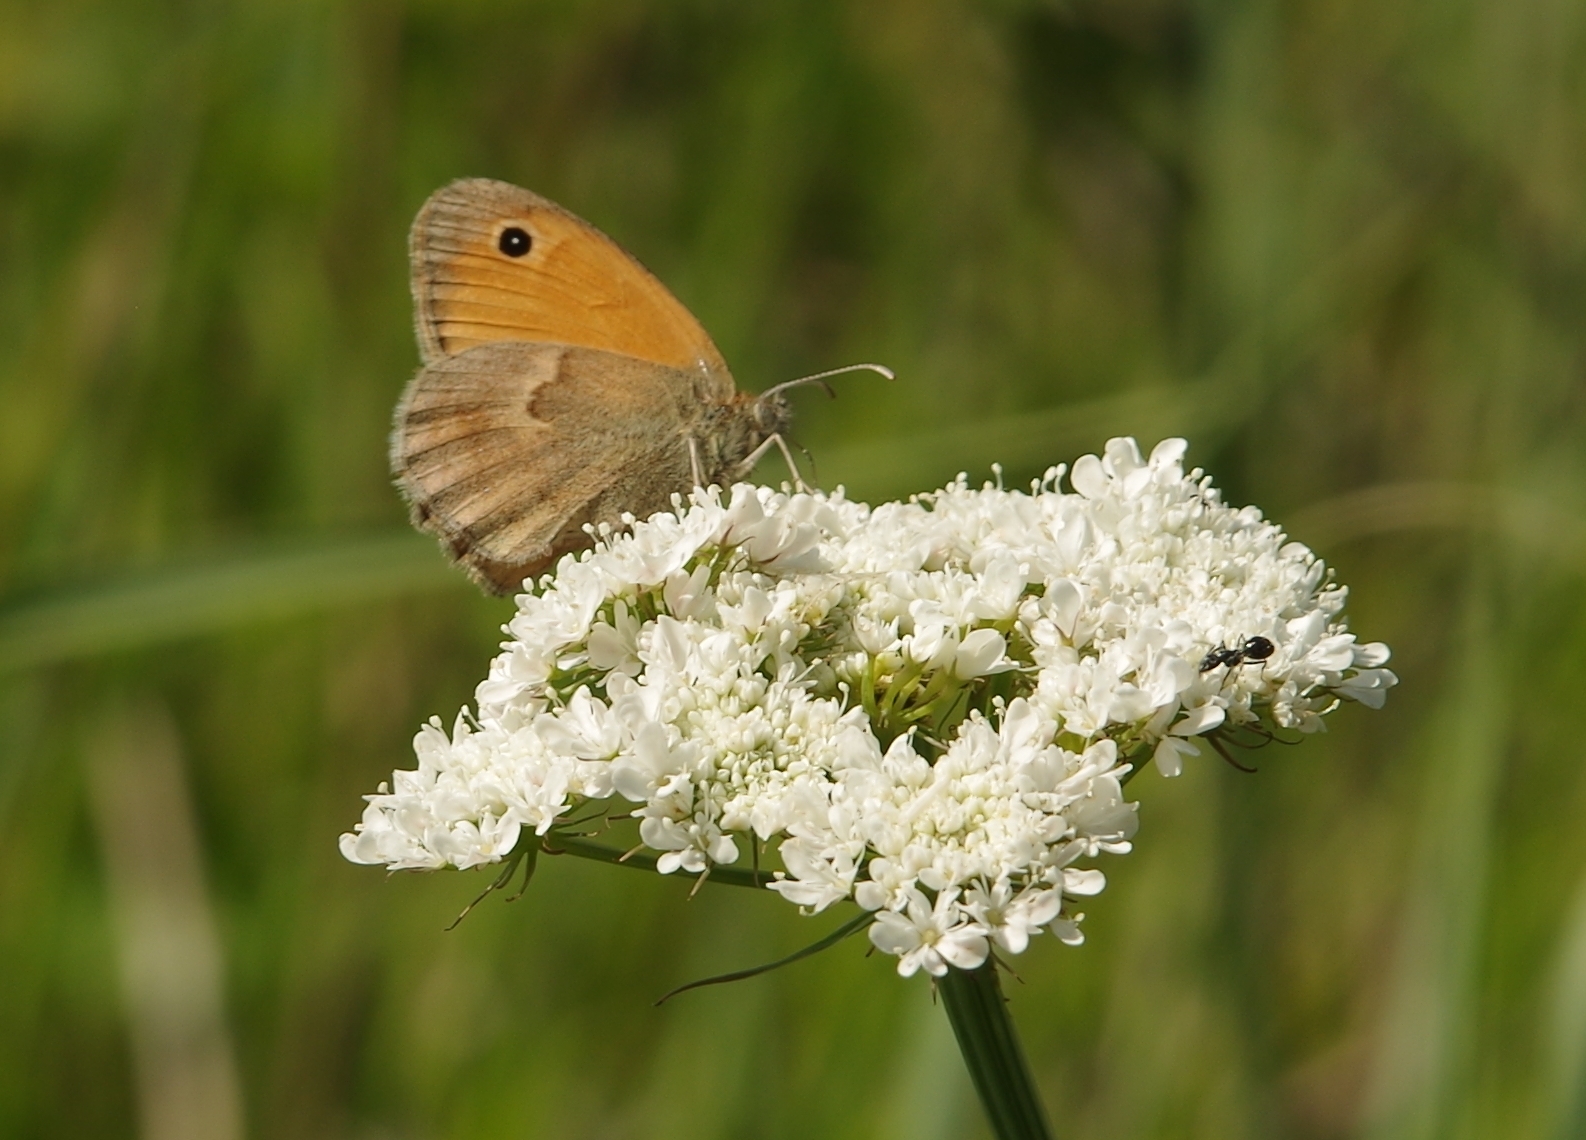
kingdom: Animalia
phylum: Arthropoda
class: Insecta
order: Lepidoptera
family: Nymphalidae
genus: Coenonympha
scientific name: Coenonympha pamphilus
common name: Small heath
